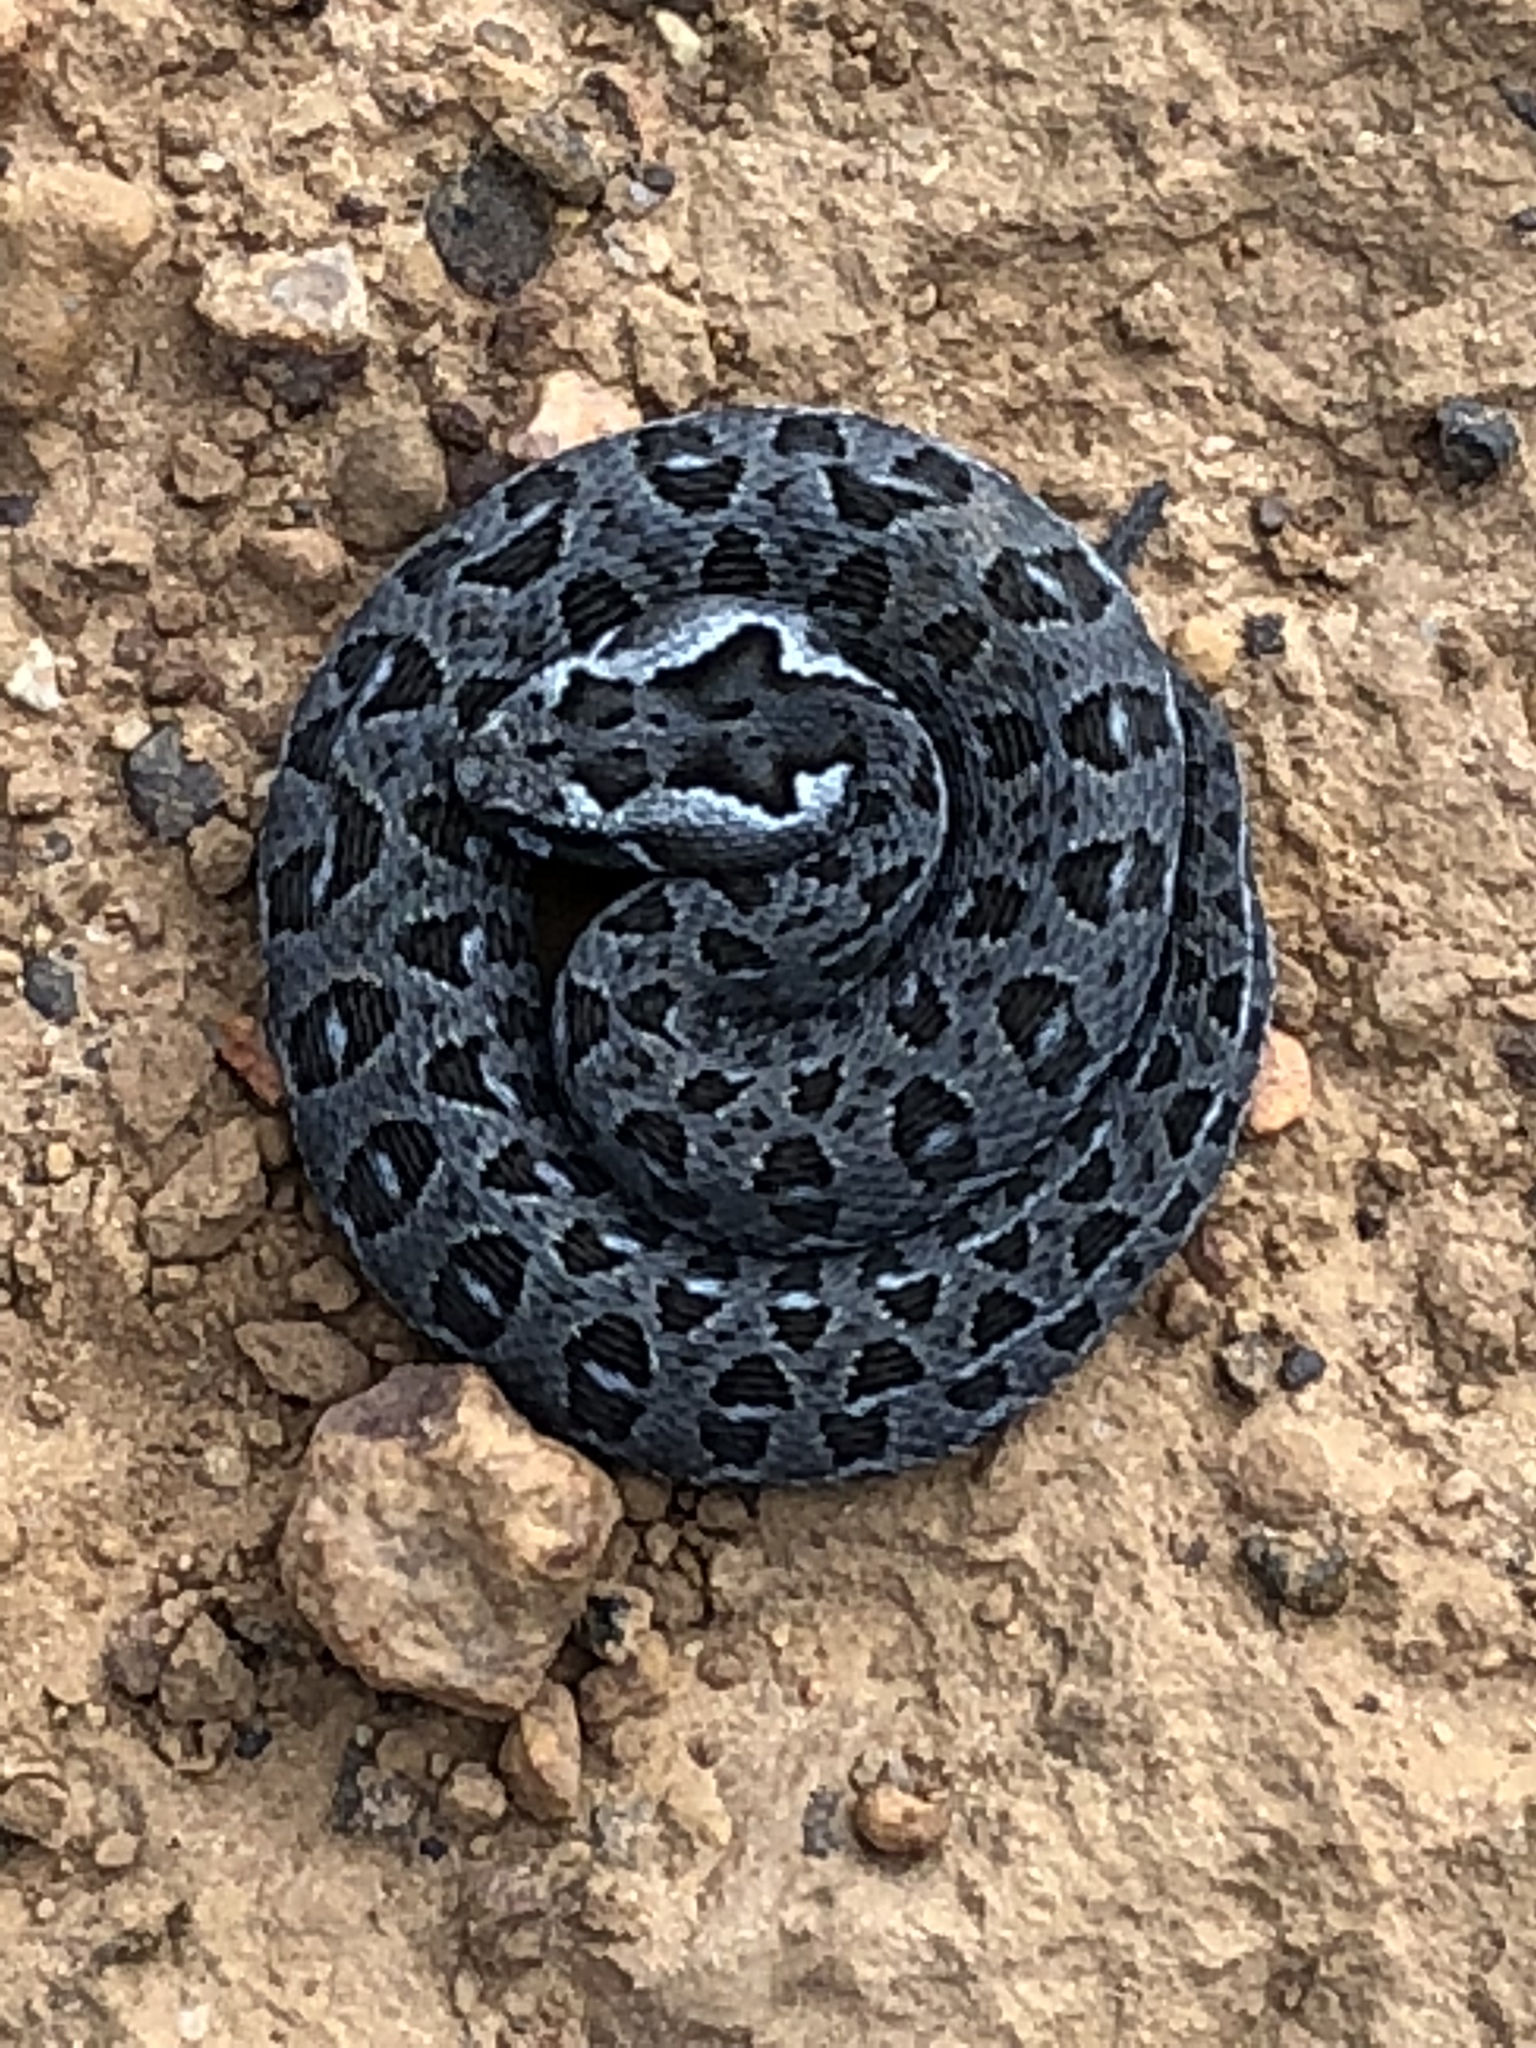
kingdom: Animalia
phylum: Chordata
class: Squamata
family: Viperidae
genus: Bitis
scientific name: Bitis atropos
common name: Mountain adder
